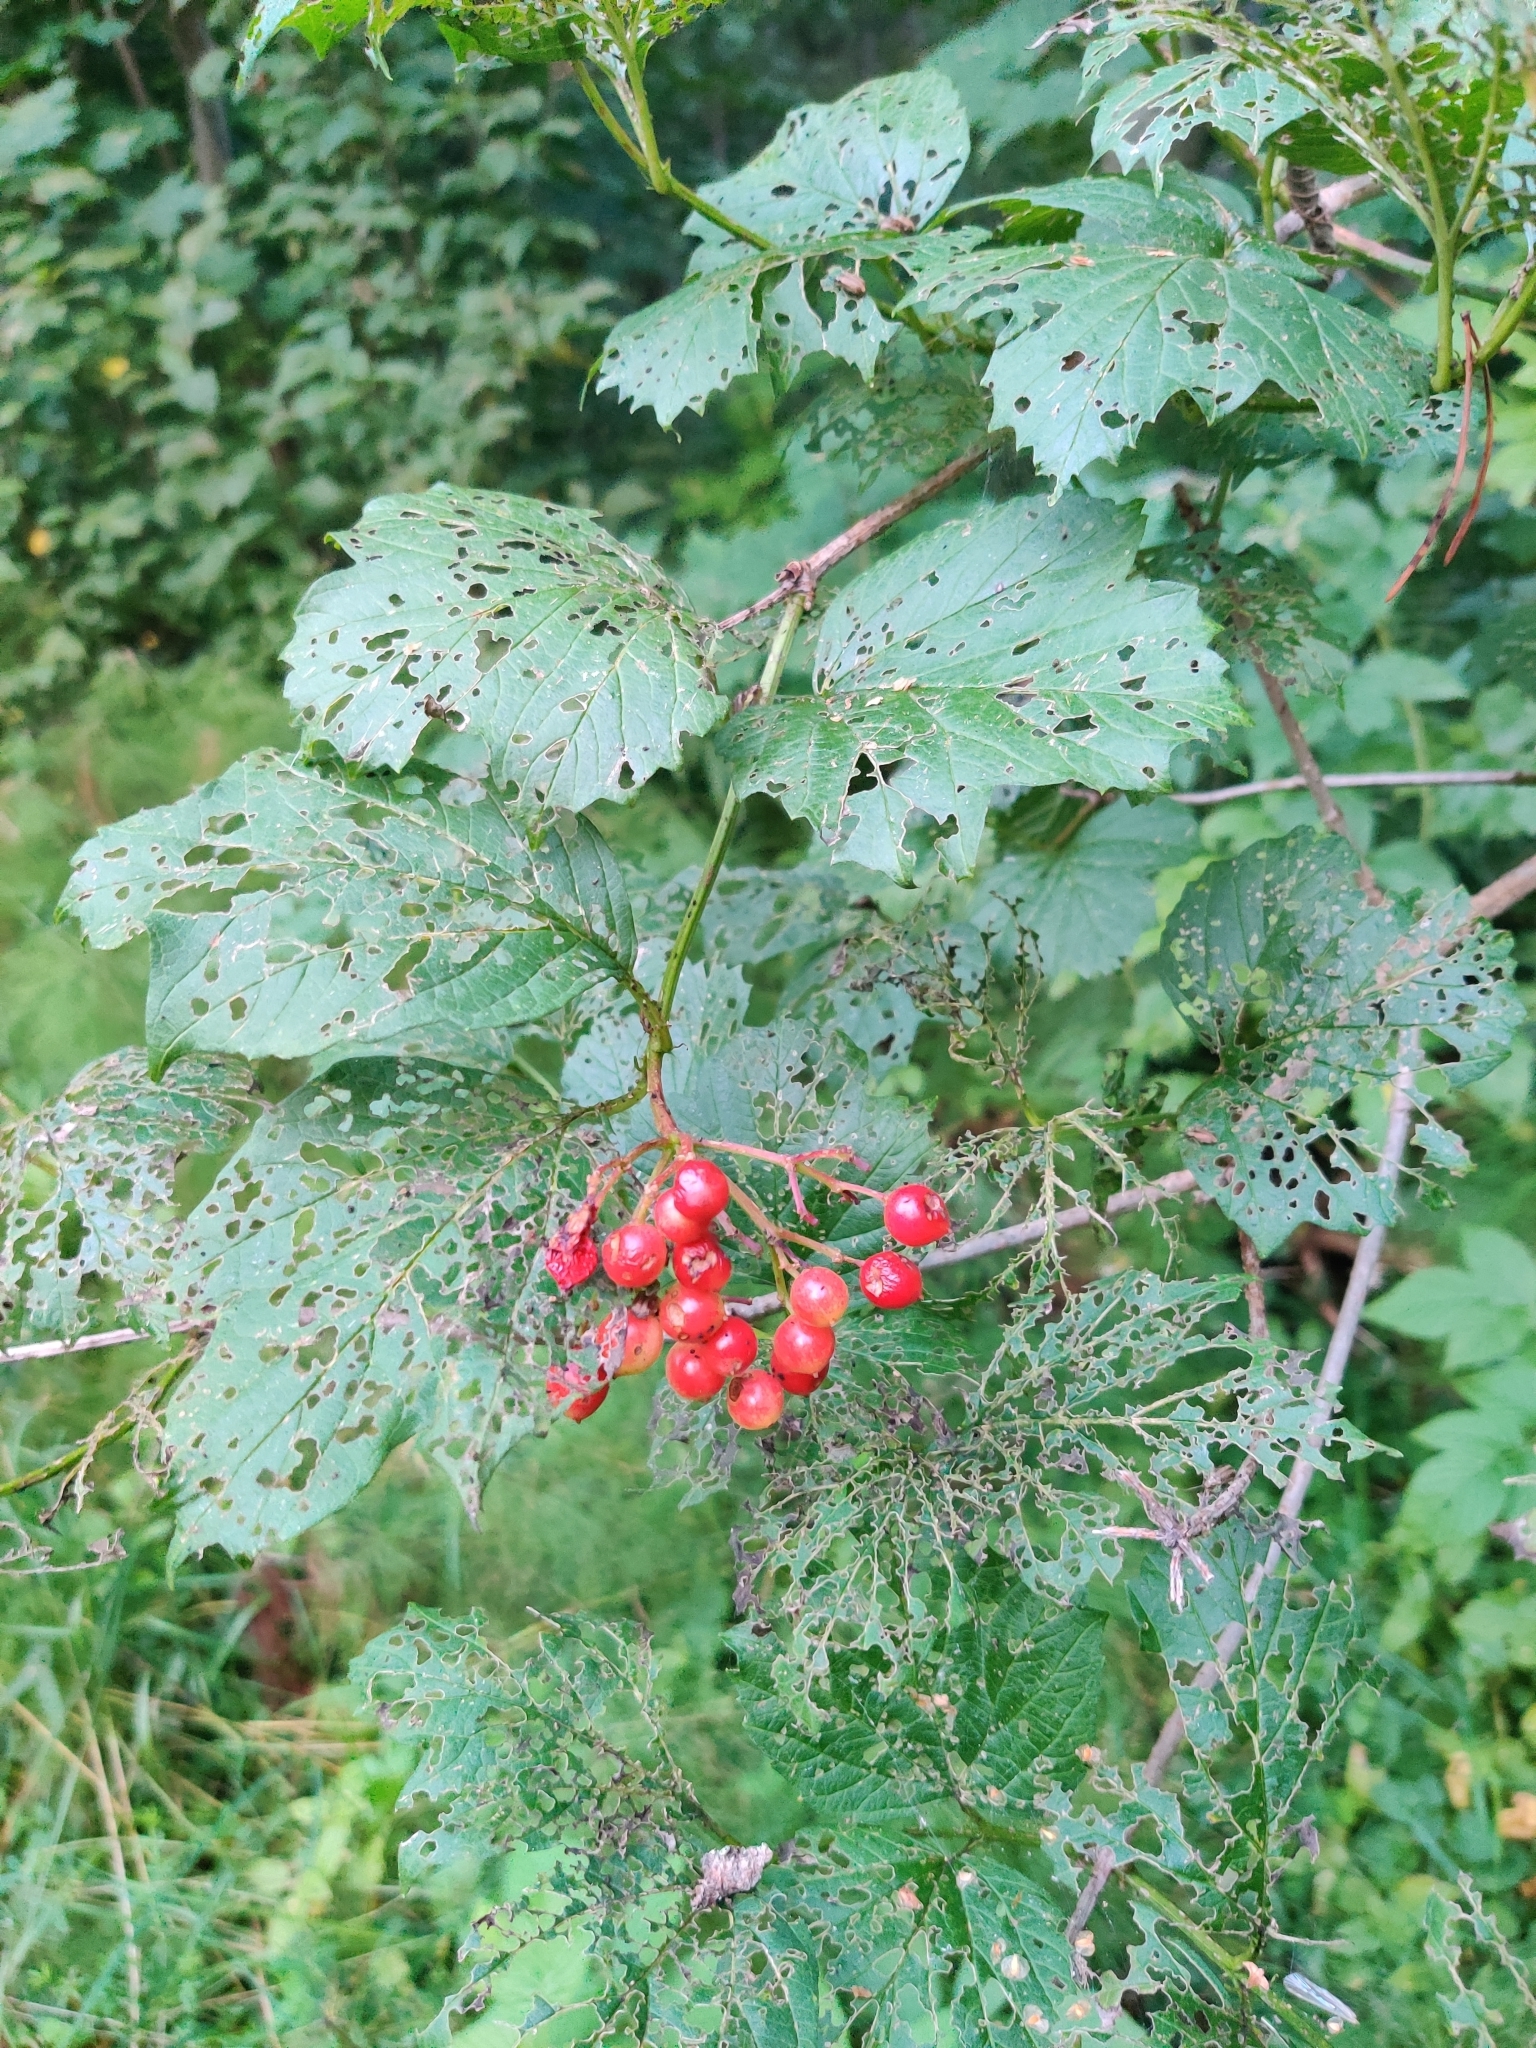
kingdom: Plantae
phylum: Tracheophyta
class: Magnoliopsida
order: Dipsacales
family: Viburnaceae
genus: Viburnum
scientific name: Viburnum opulus
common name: Guelder-rose
